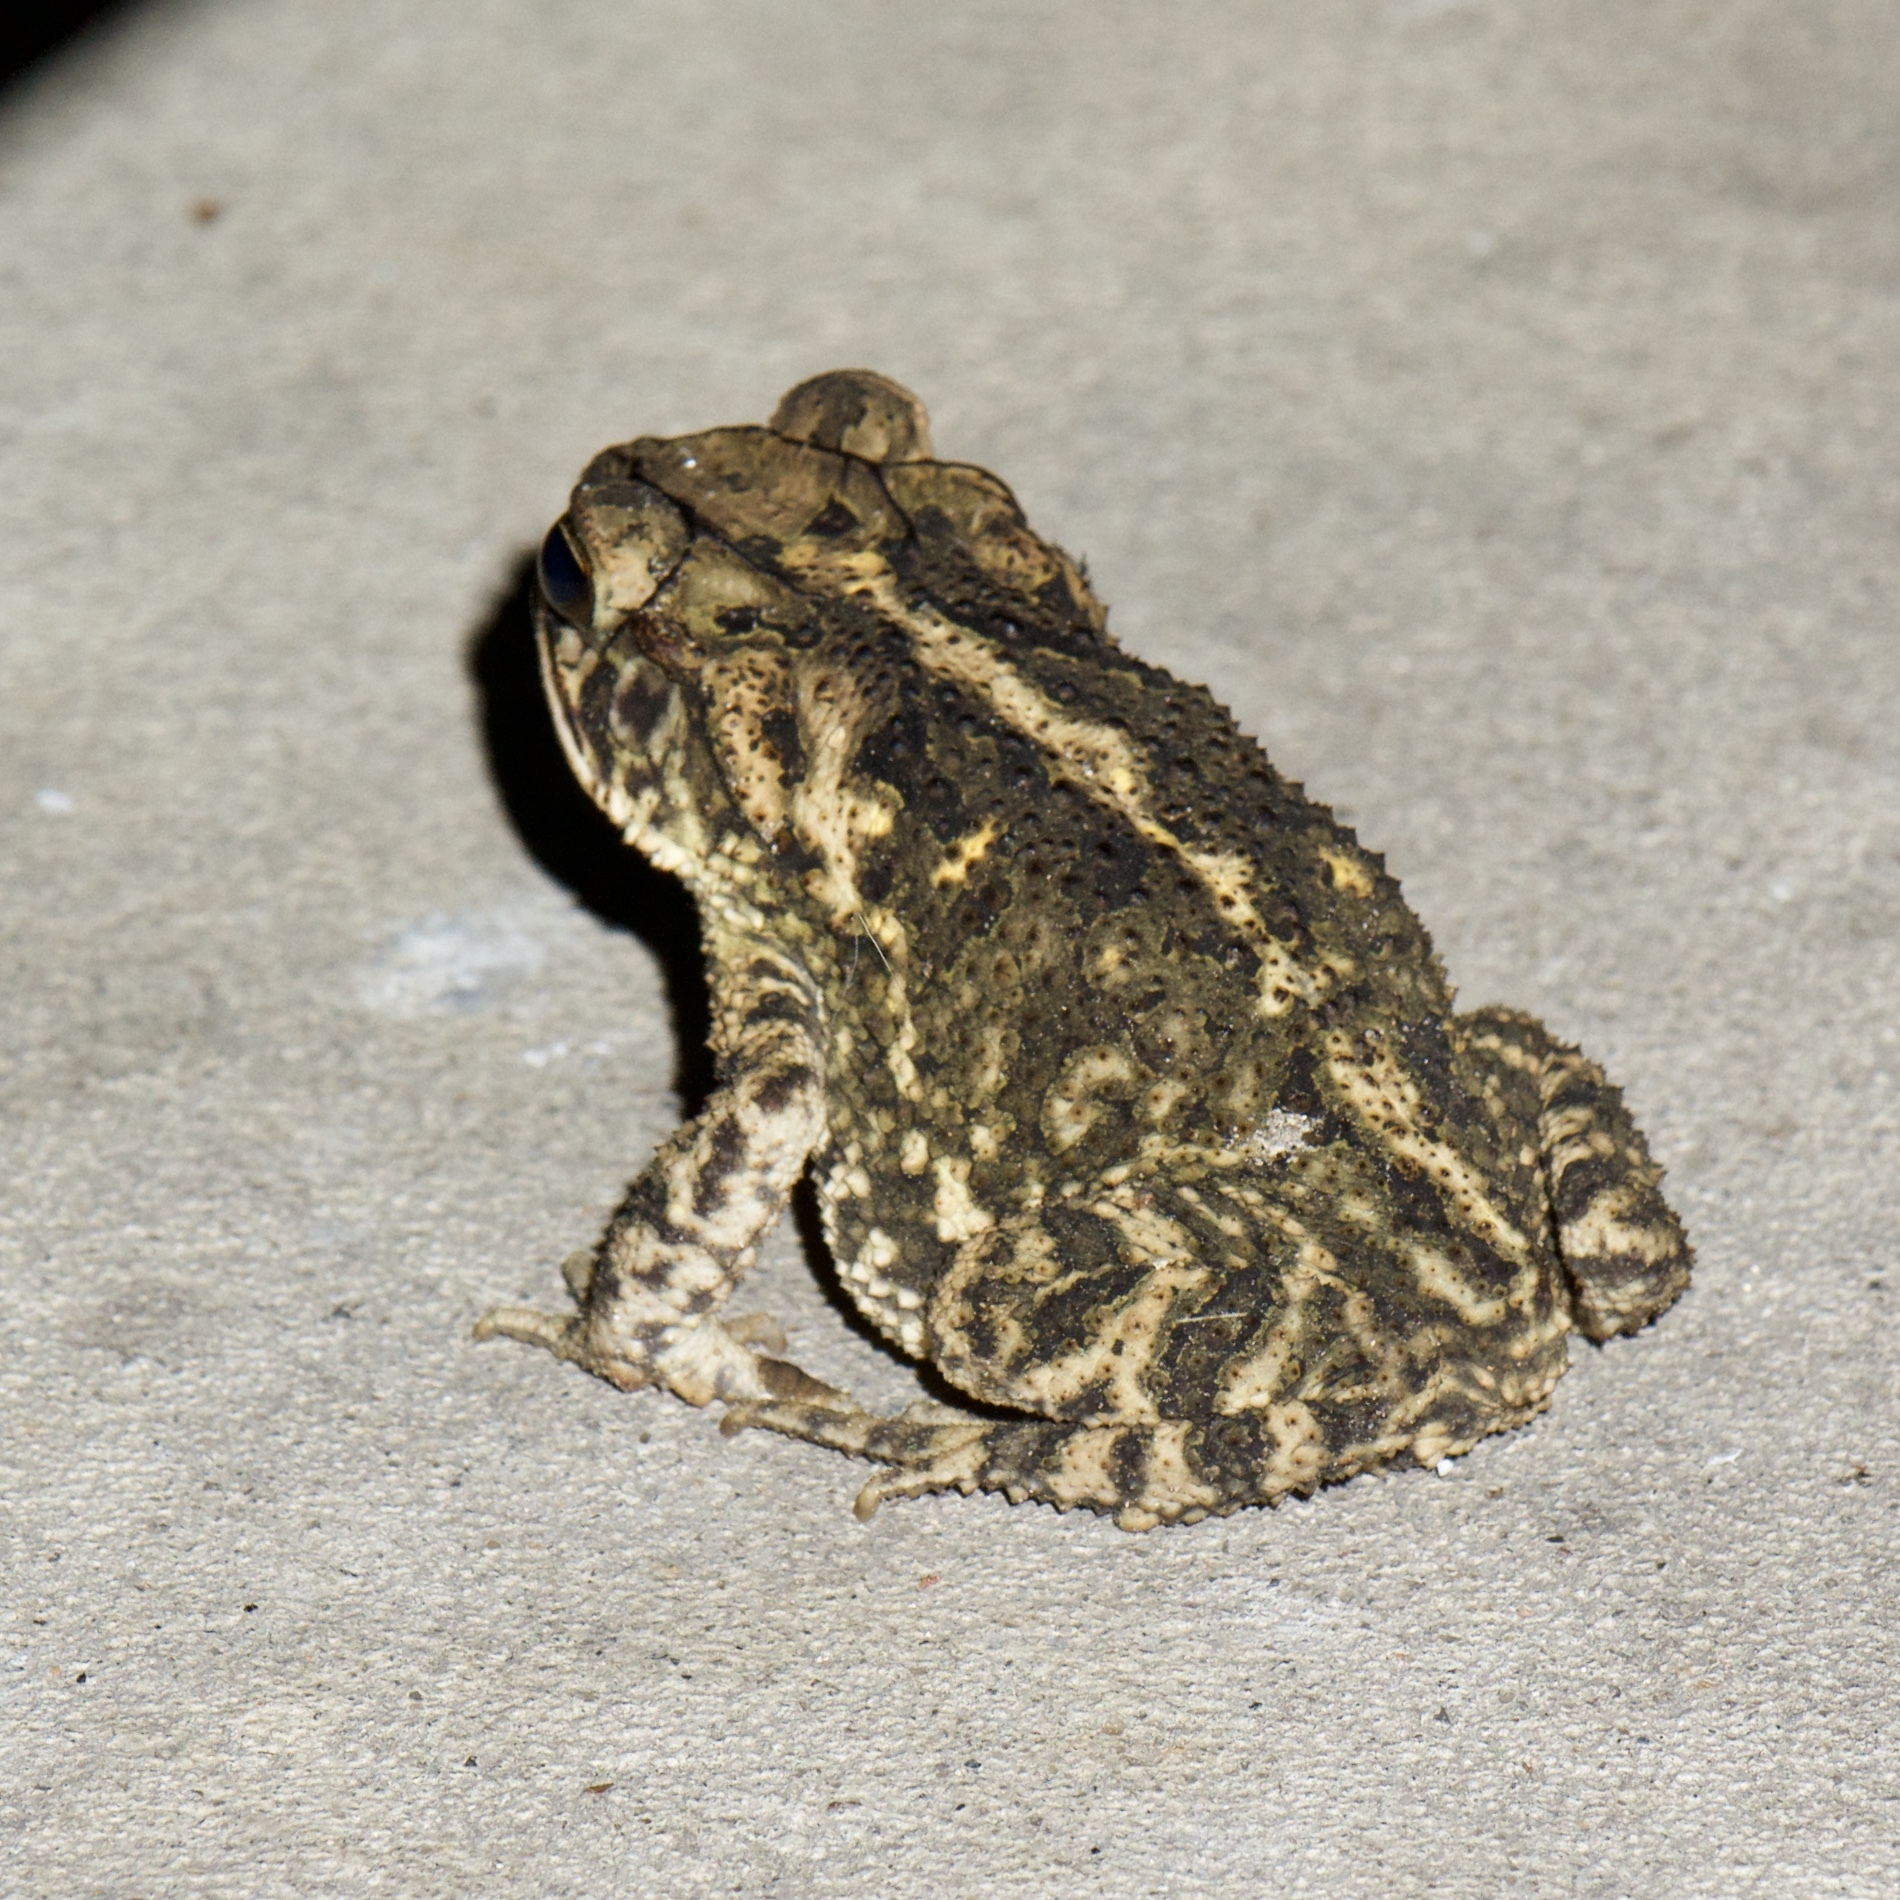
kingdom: Animalia
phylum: Chordata
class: Amphibia
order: Anura
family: Bufonidae
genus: Incilius
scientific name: Incilius nebulifer
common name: Gulf coast toad
